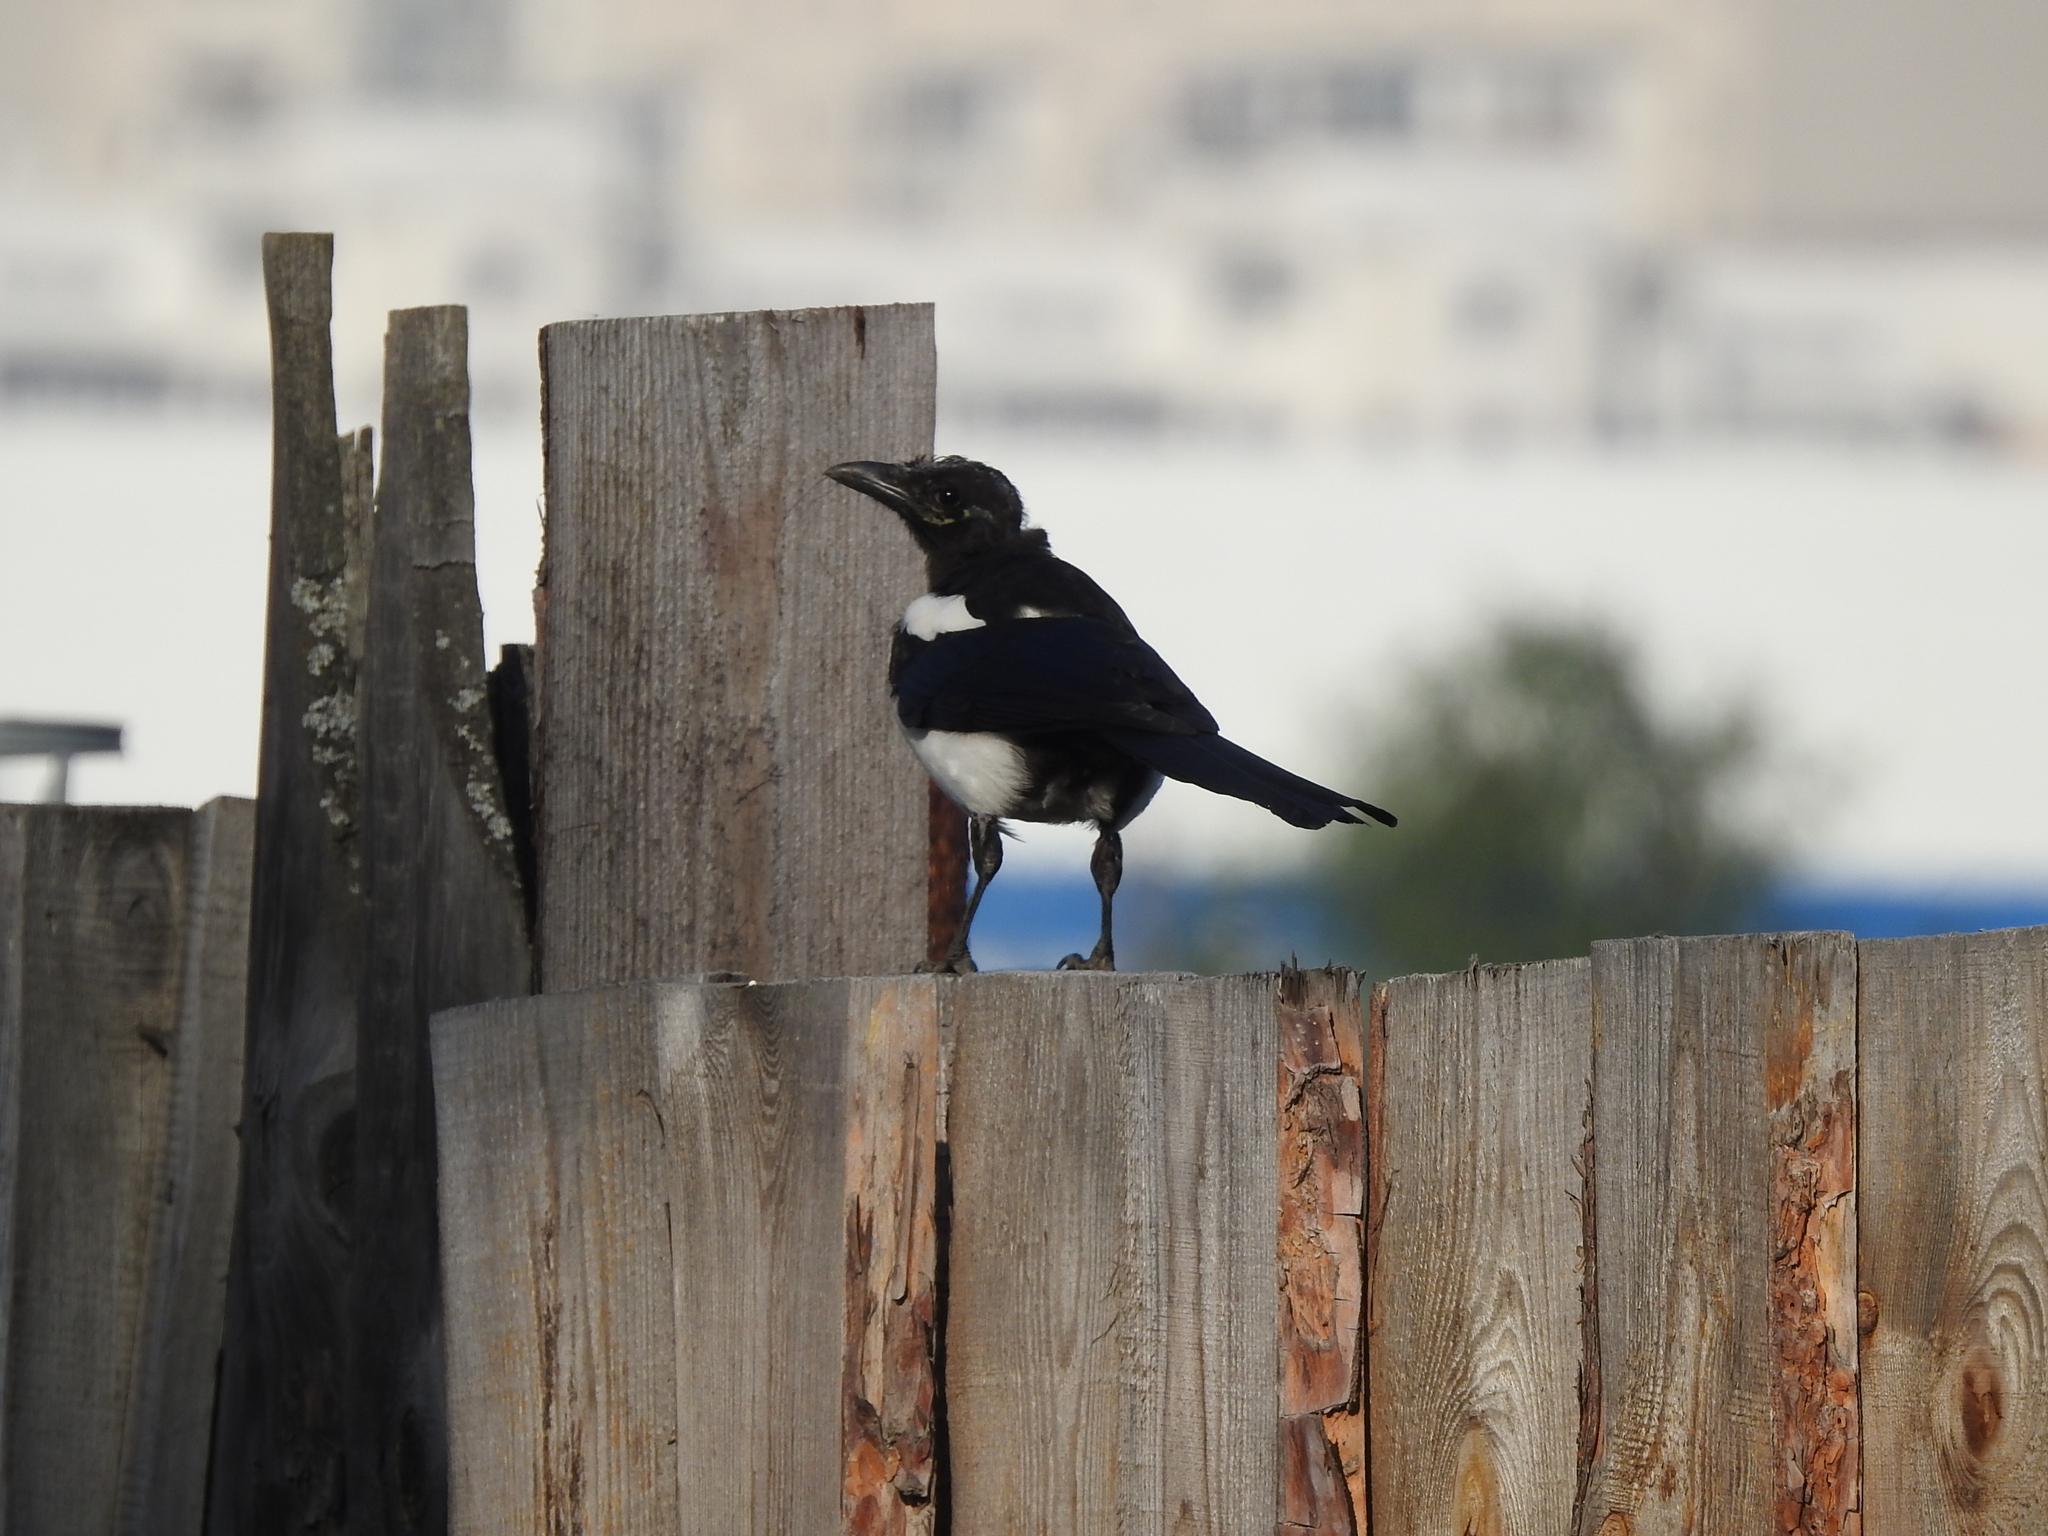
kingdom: Animalia
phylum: Chordata
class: Aves
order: Passeriformes
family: Corvidae
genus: Pica
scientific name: Pica pica
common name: Eurasian magpie
